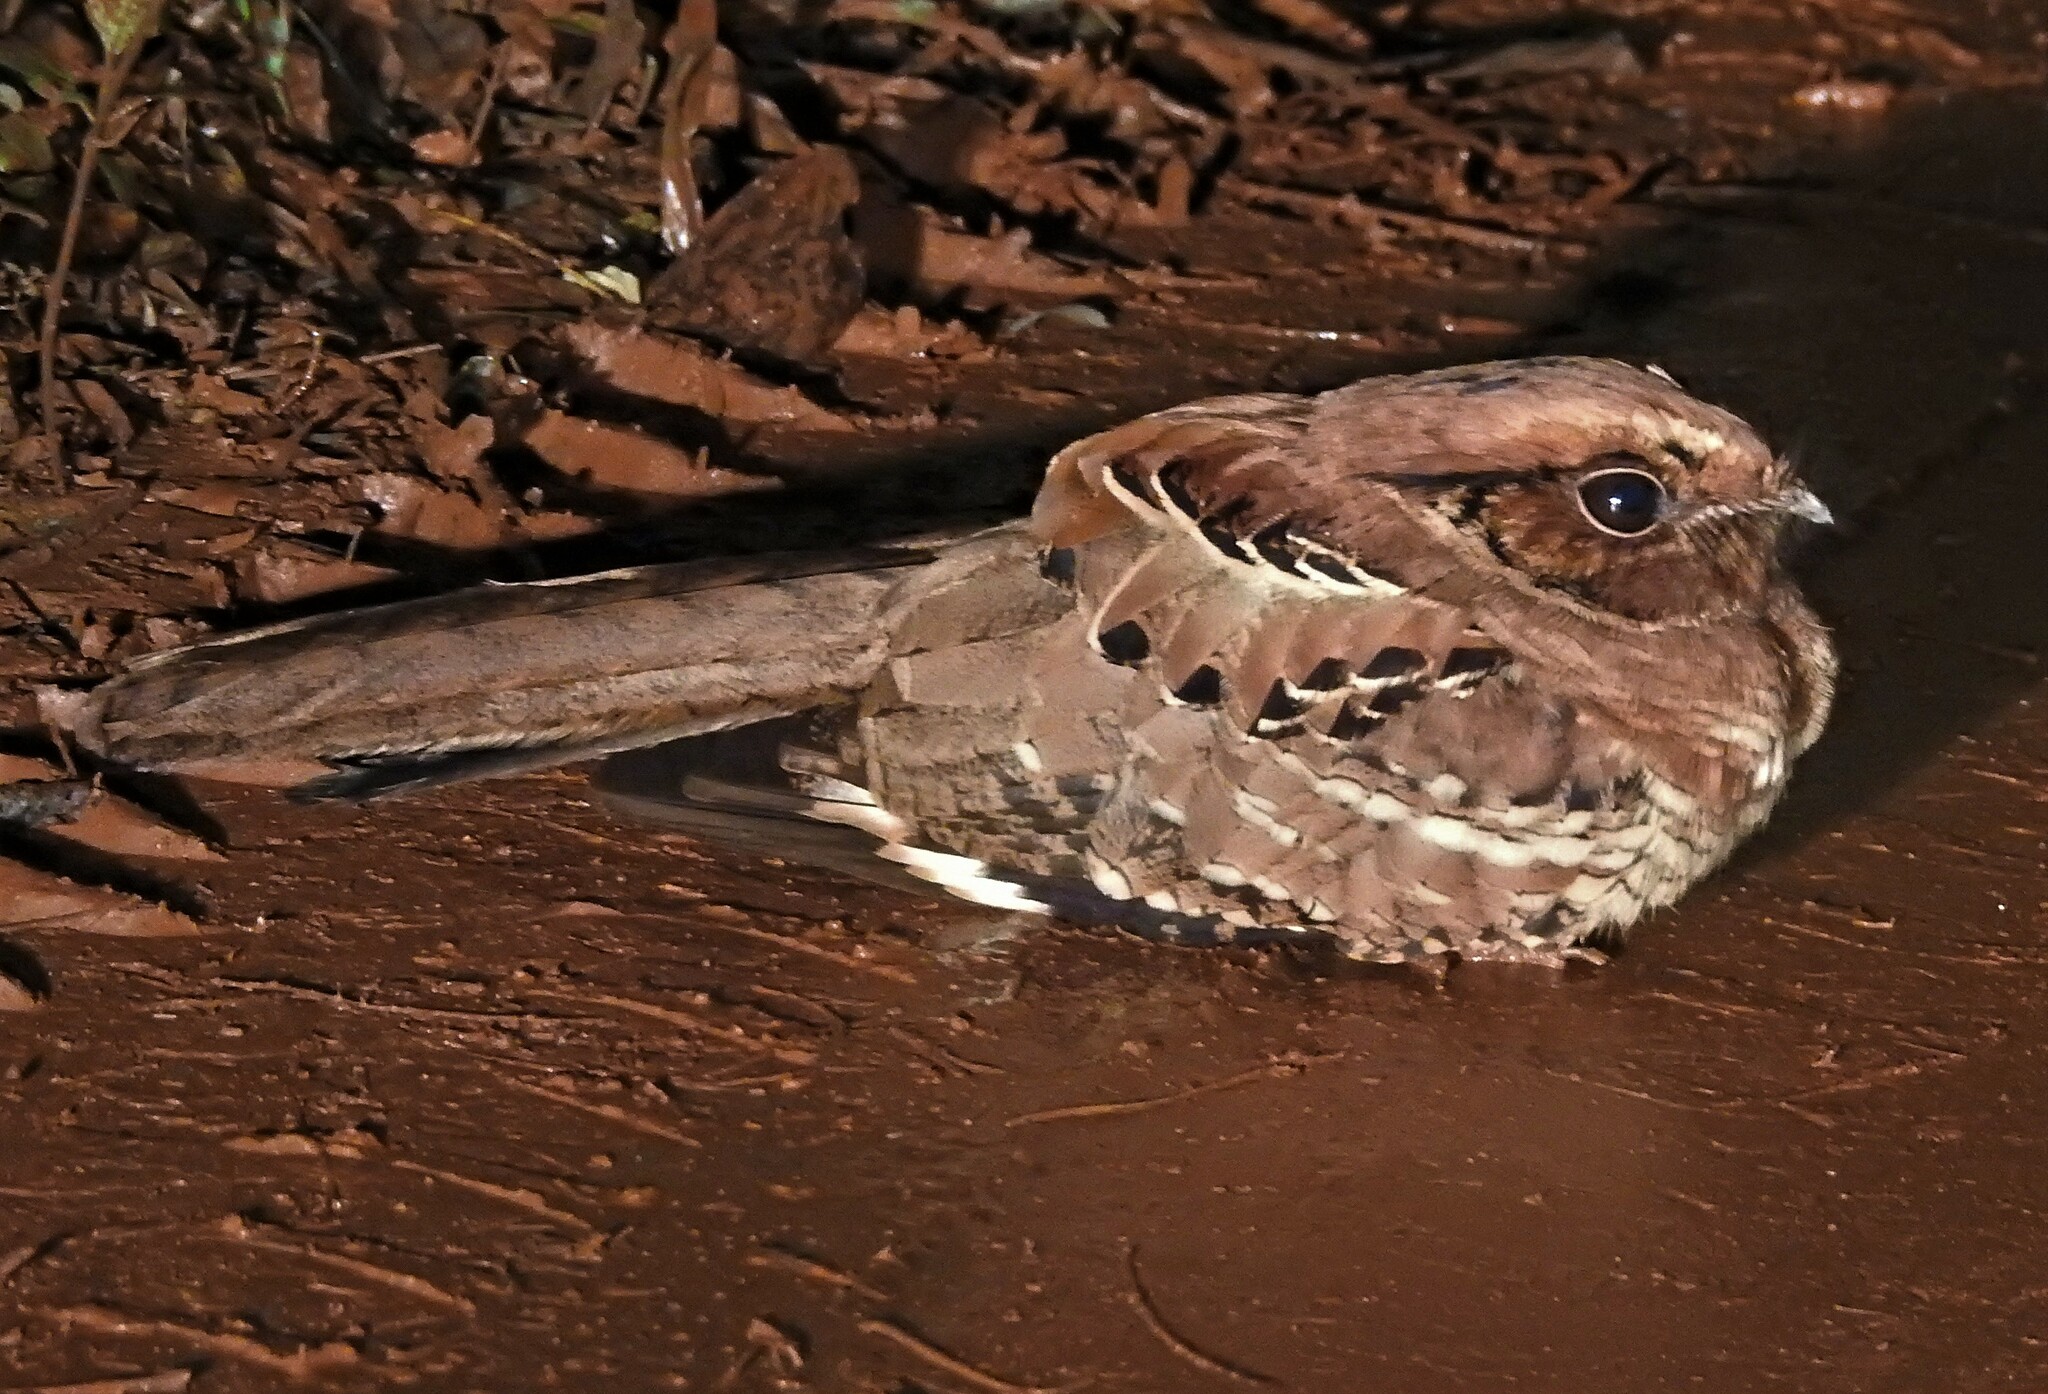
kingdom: Animalia
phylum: Chordata
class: Aves
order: Caprimulgiformes
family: Caprimulgidae
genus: Nyctidromus
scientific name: Nyctidromus albicollis
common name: Pauraque
